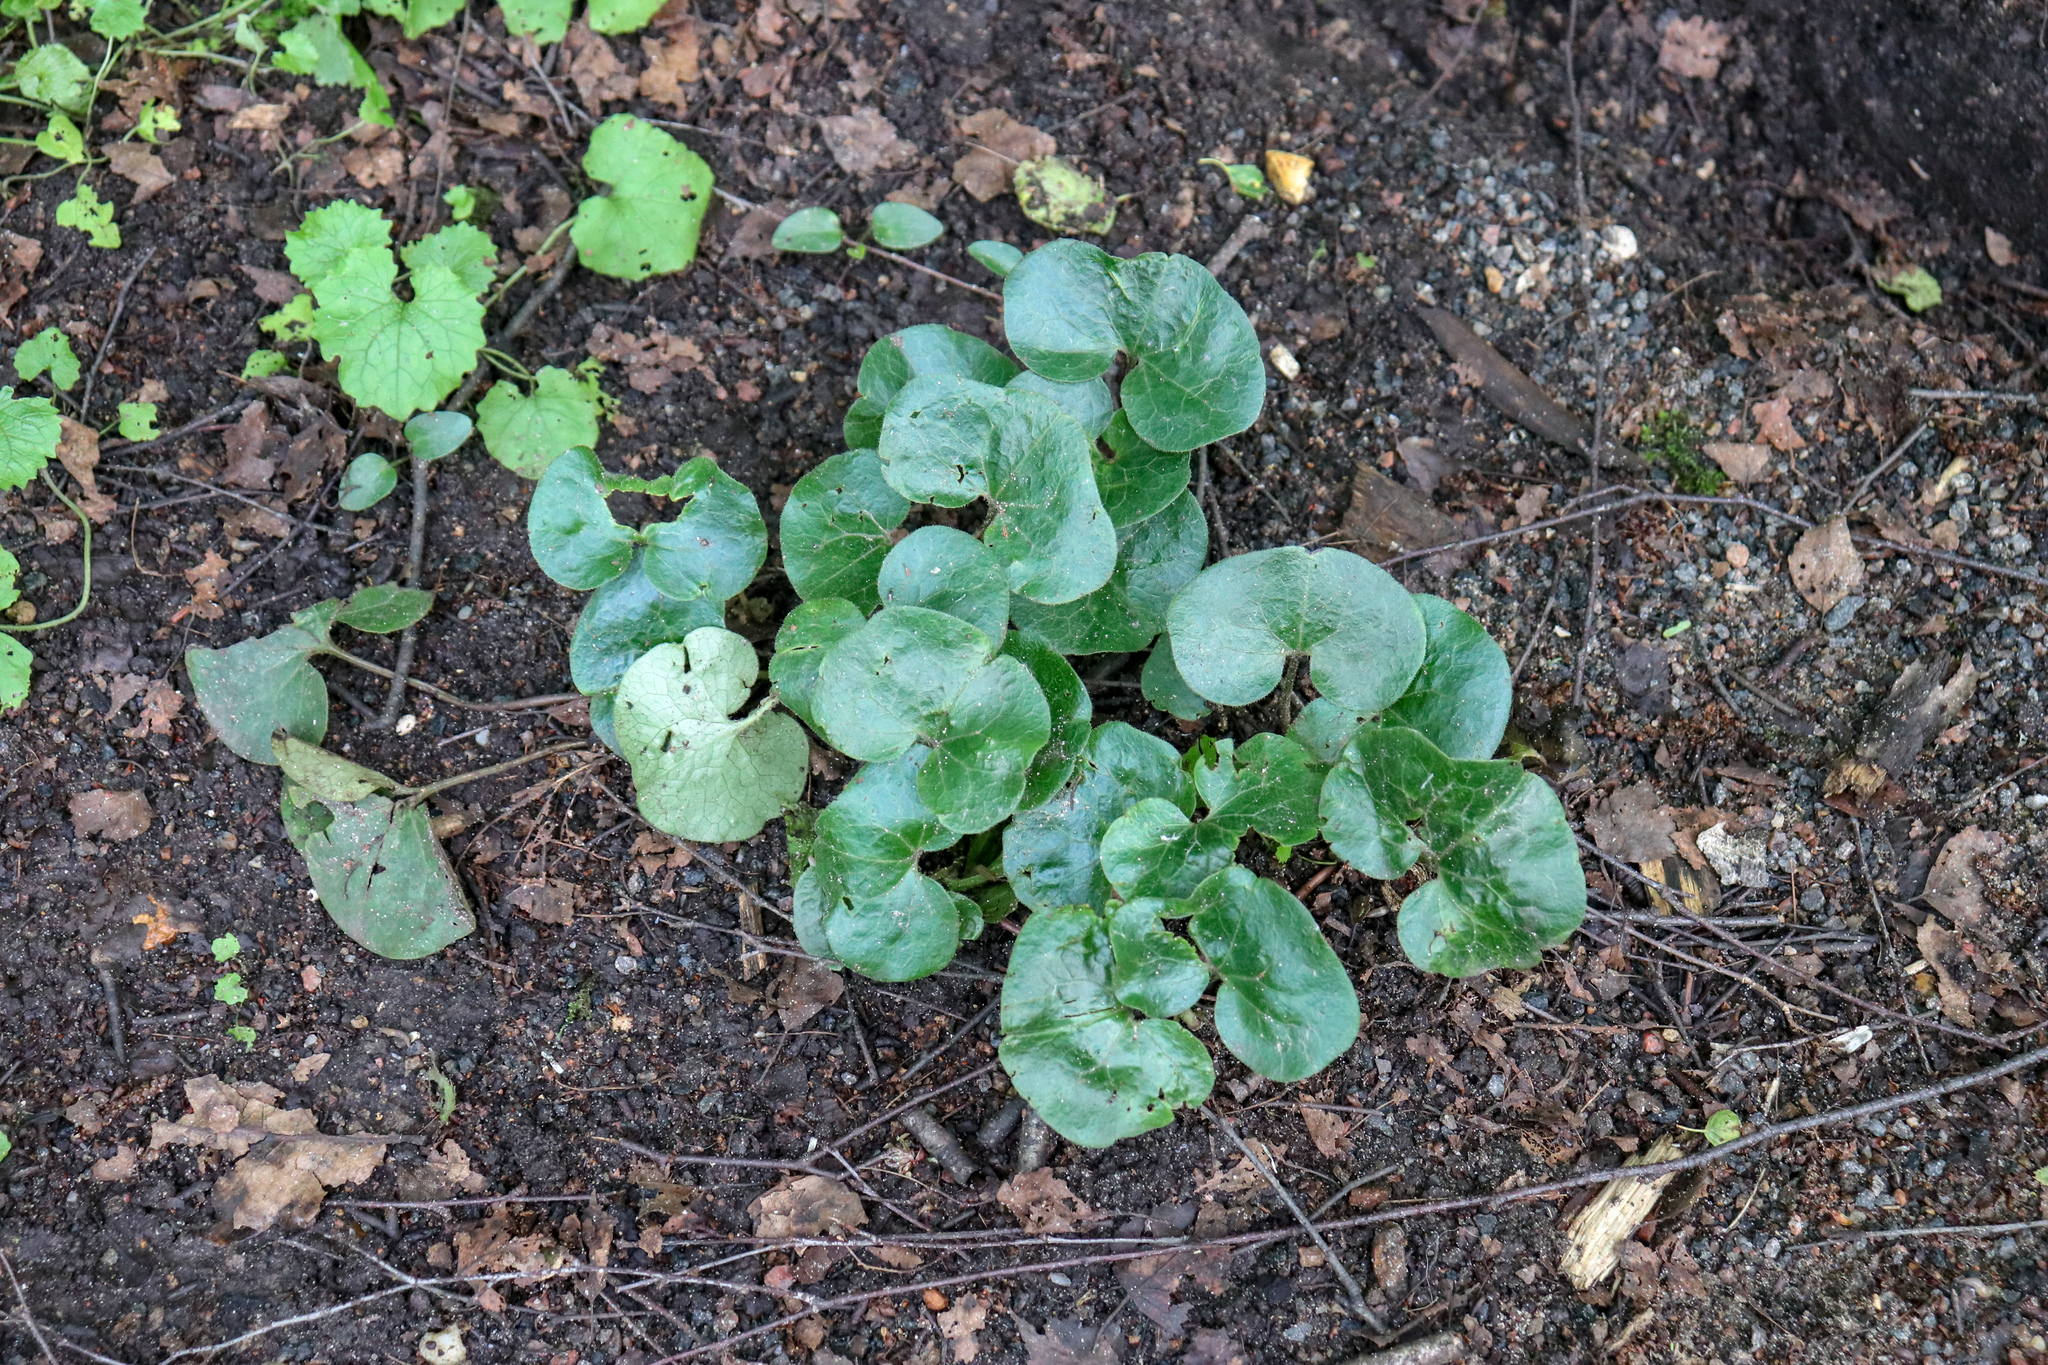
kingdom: Plantae
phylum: Tracheophyta
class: Magnoliopsida
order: Piperales
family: Aristolochiaceae
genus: Asarum
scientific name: Asarum europaeum
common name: Asarabacca
